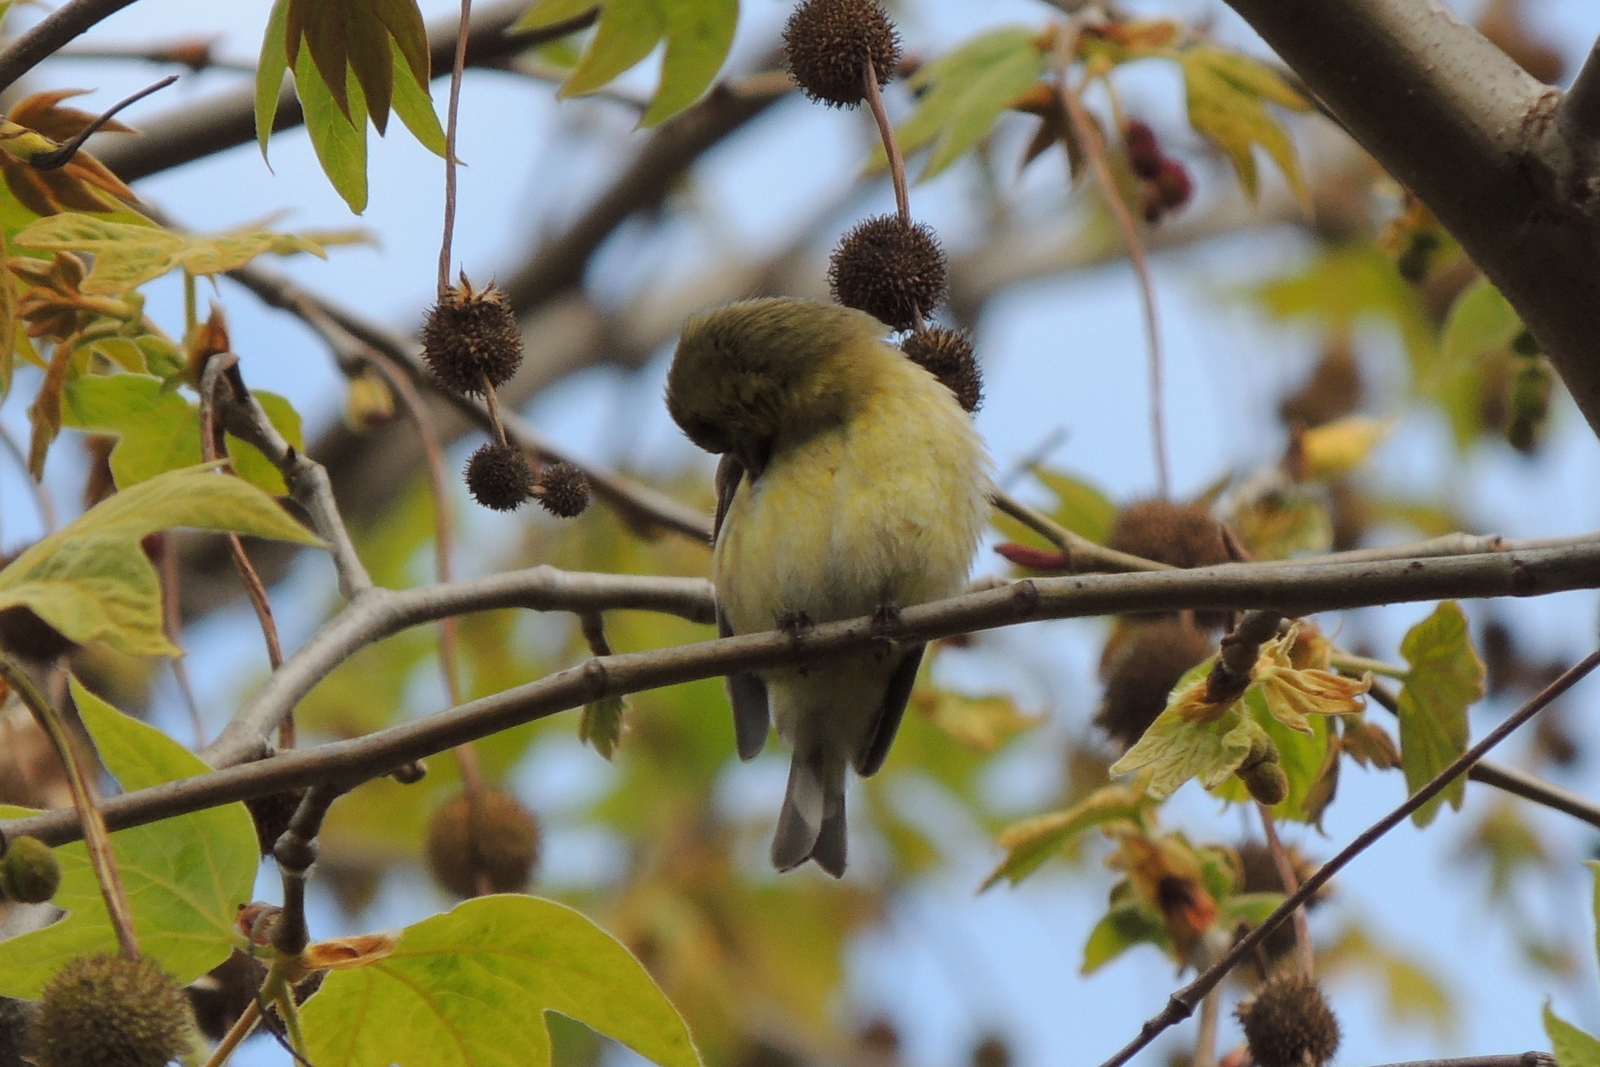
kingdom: Animalia
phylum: Chordata
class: Aves
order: Passeriformes
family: Fringillidae
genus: Spinus
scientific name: Spinus psaltria
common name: Lesser goldfinch
